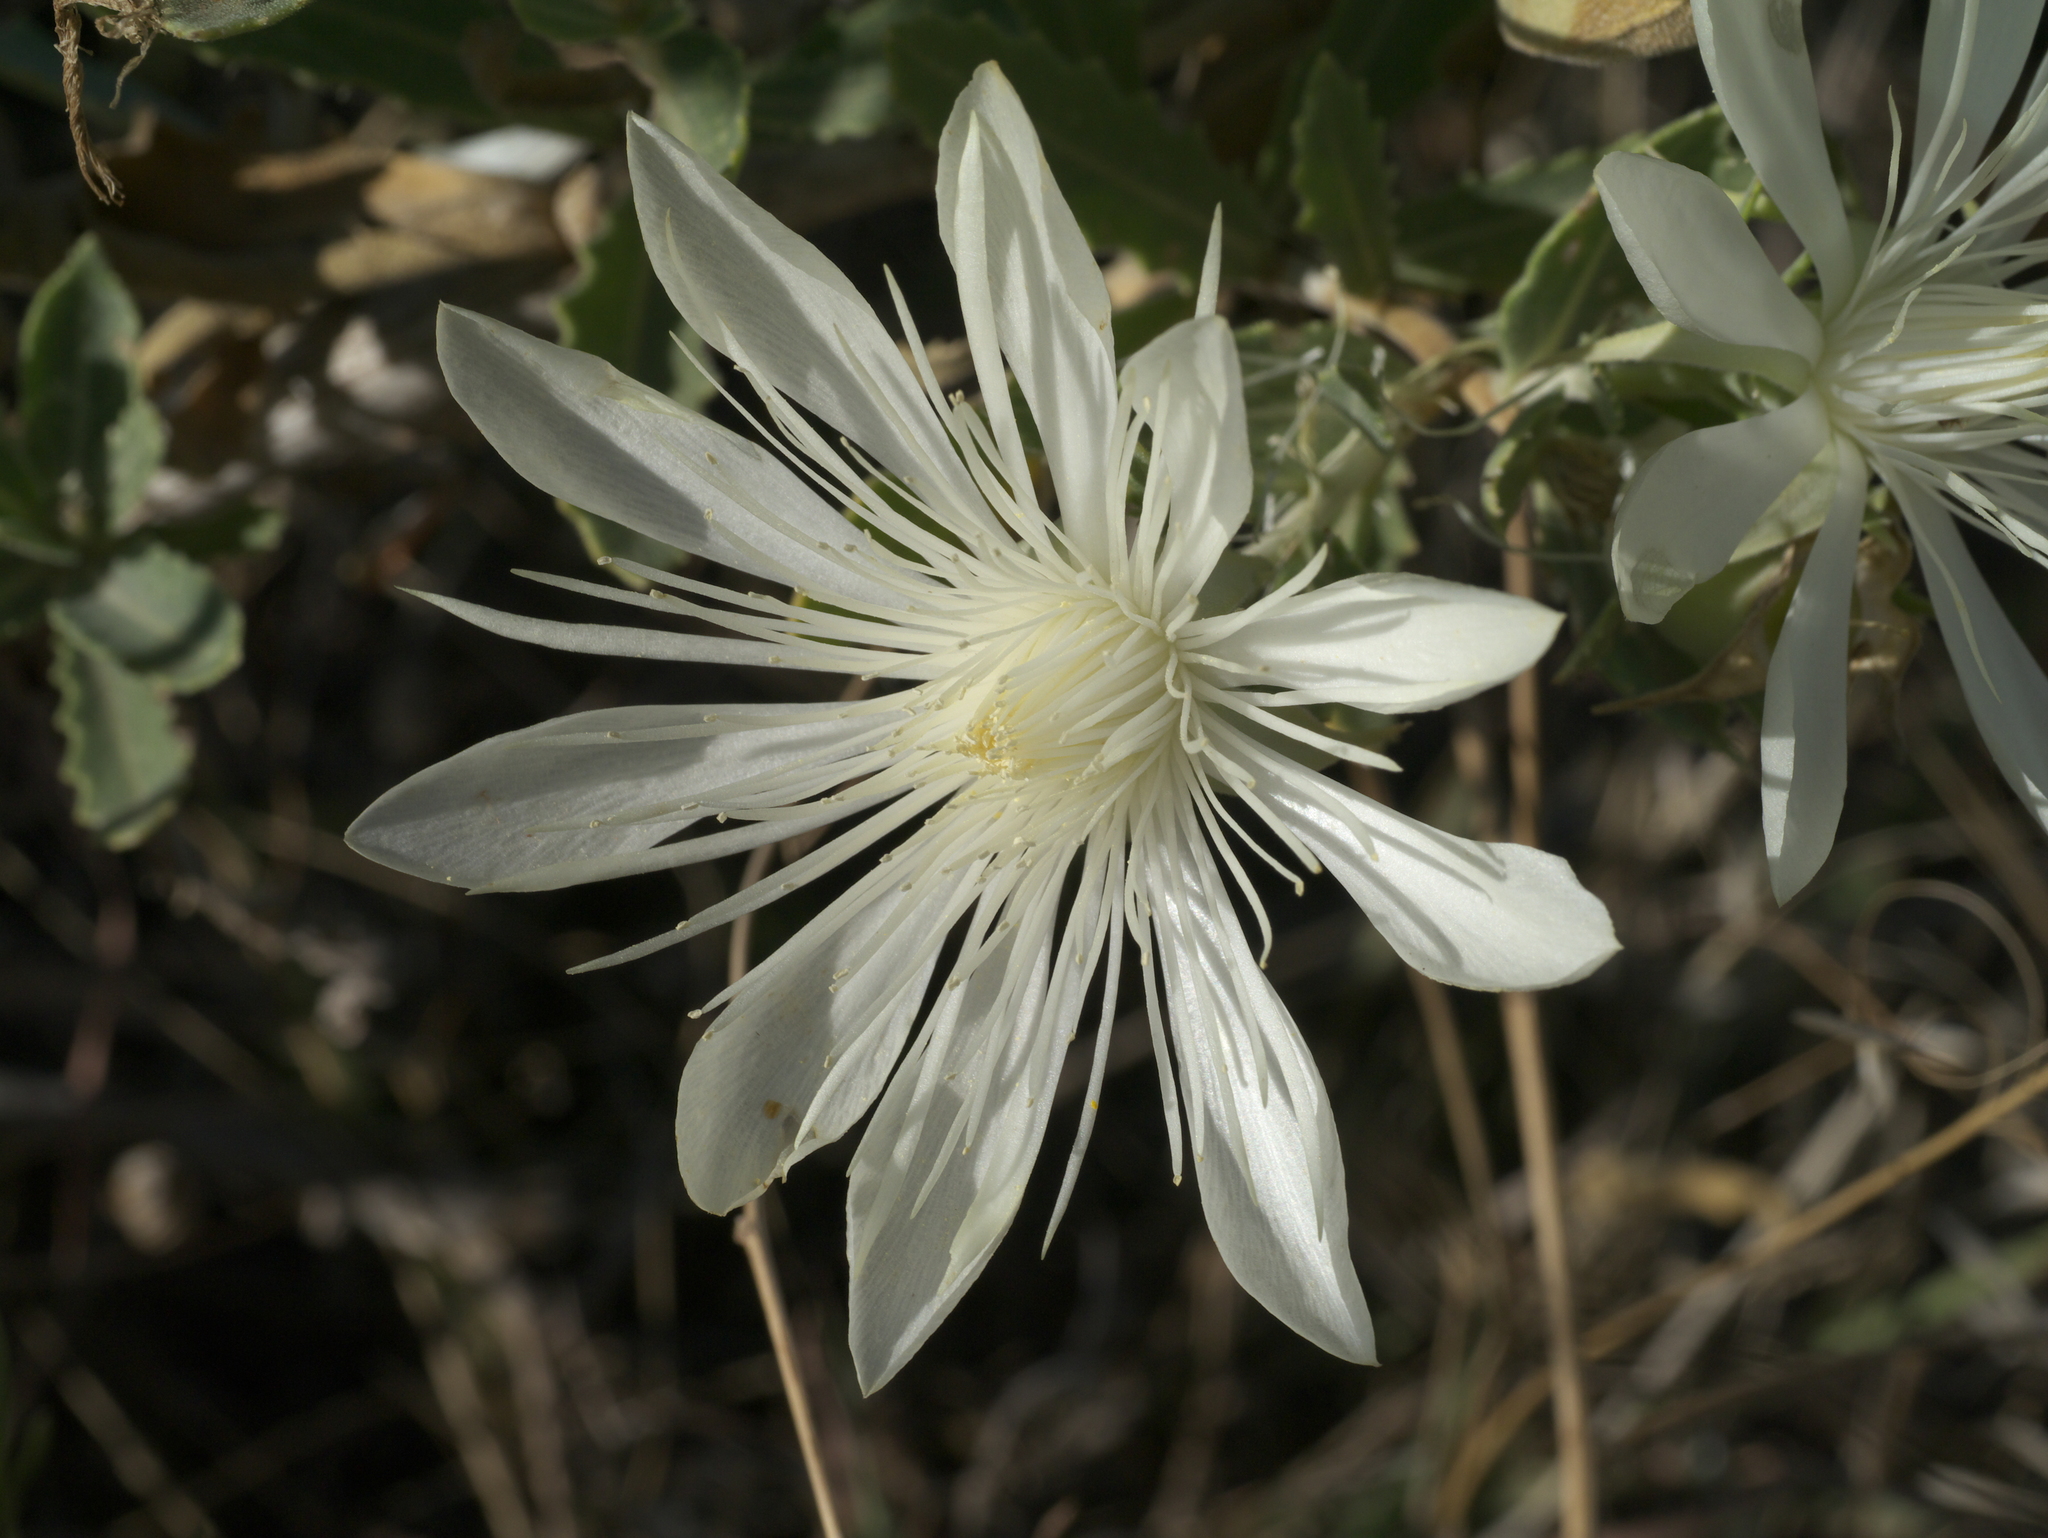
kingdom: Plantae
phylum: Tracheophyta
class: Magnoliopsida
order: Cornales
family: Loasaceae
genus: Mentzelia
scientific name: Mentzelia nuda
